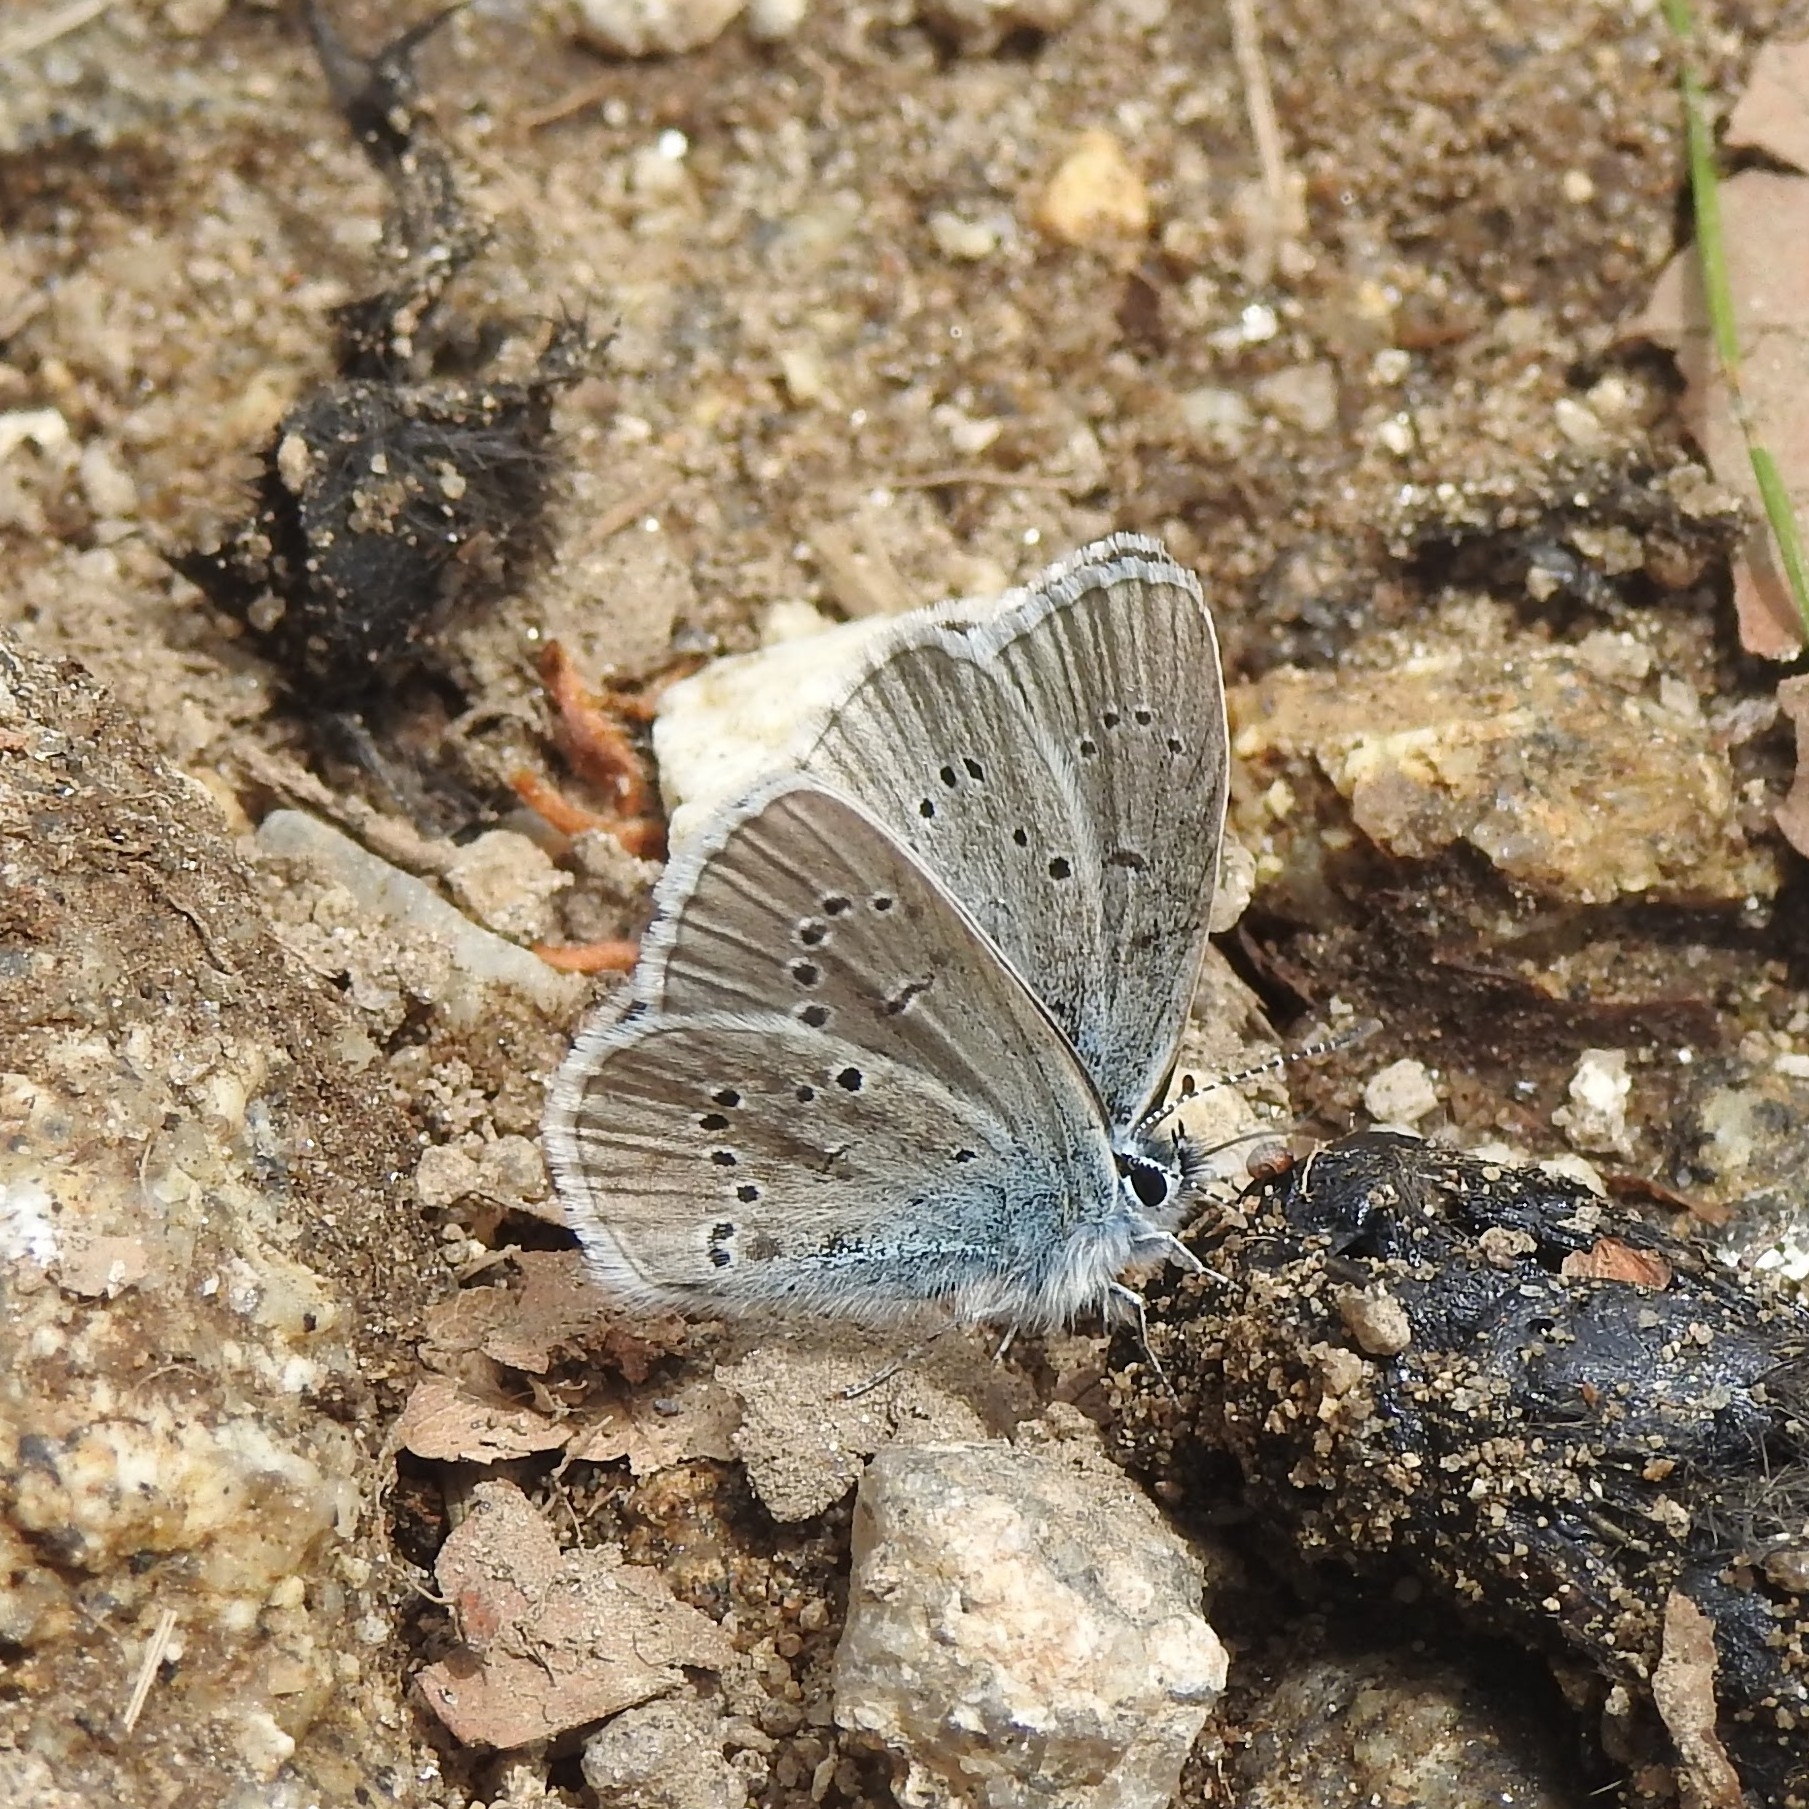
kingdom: Animalia
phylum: Arthropoda
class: Insecta
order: Lepidoptera
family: Lycaenidae
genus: Cyaniris
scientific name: Cyaniris semiargus
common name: Mazarine blue
